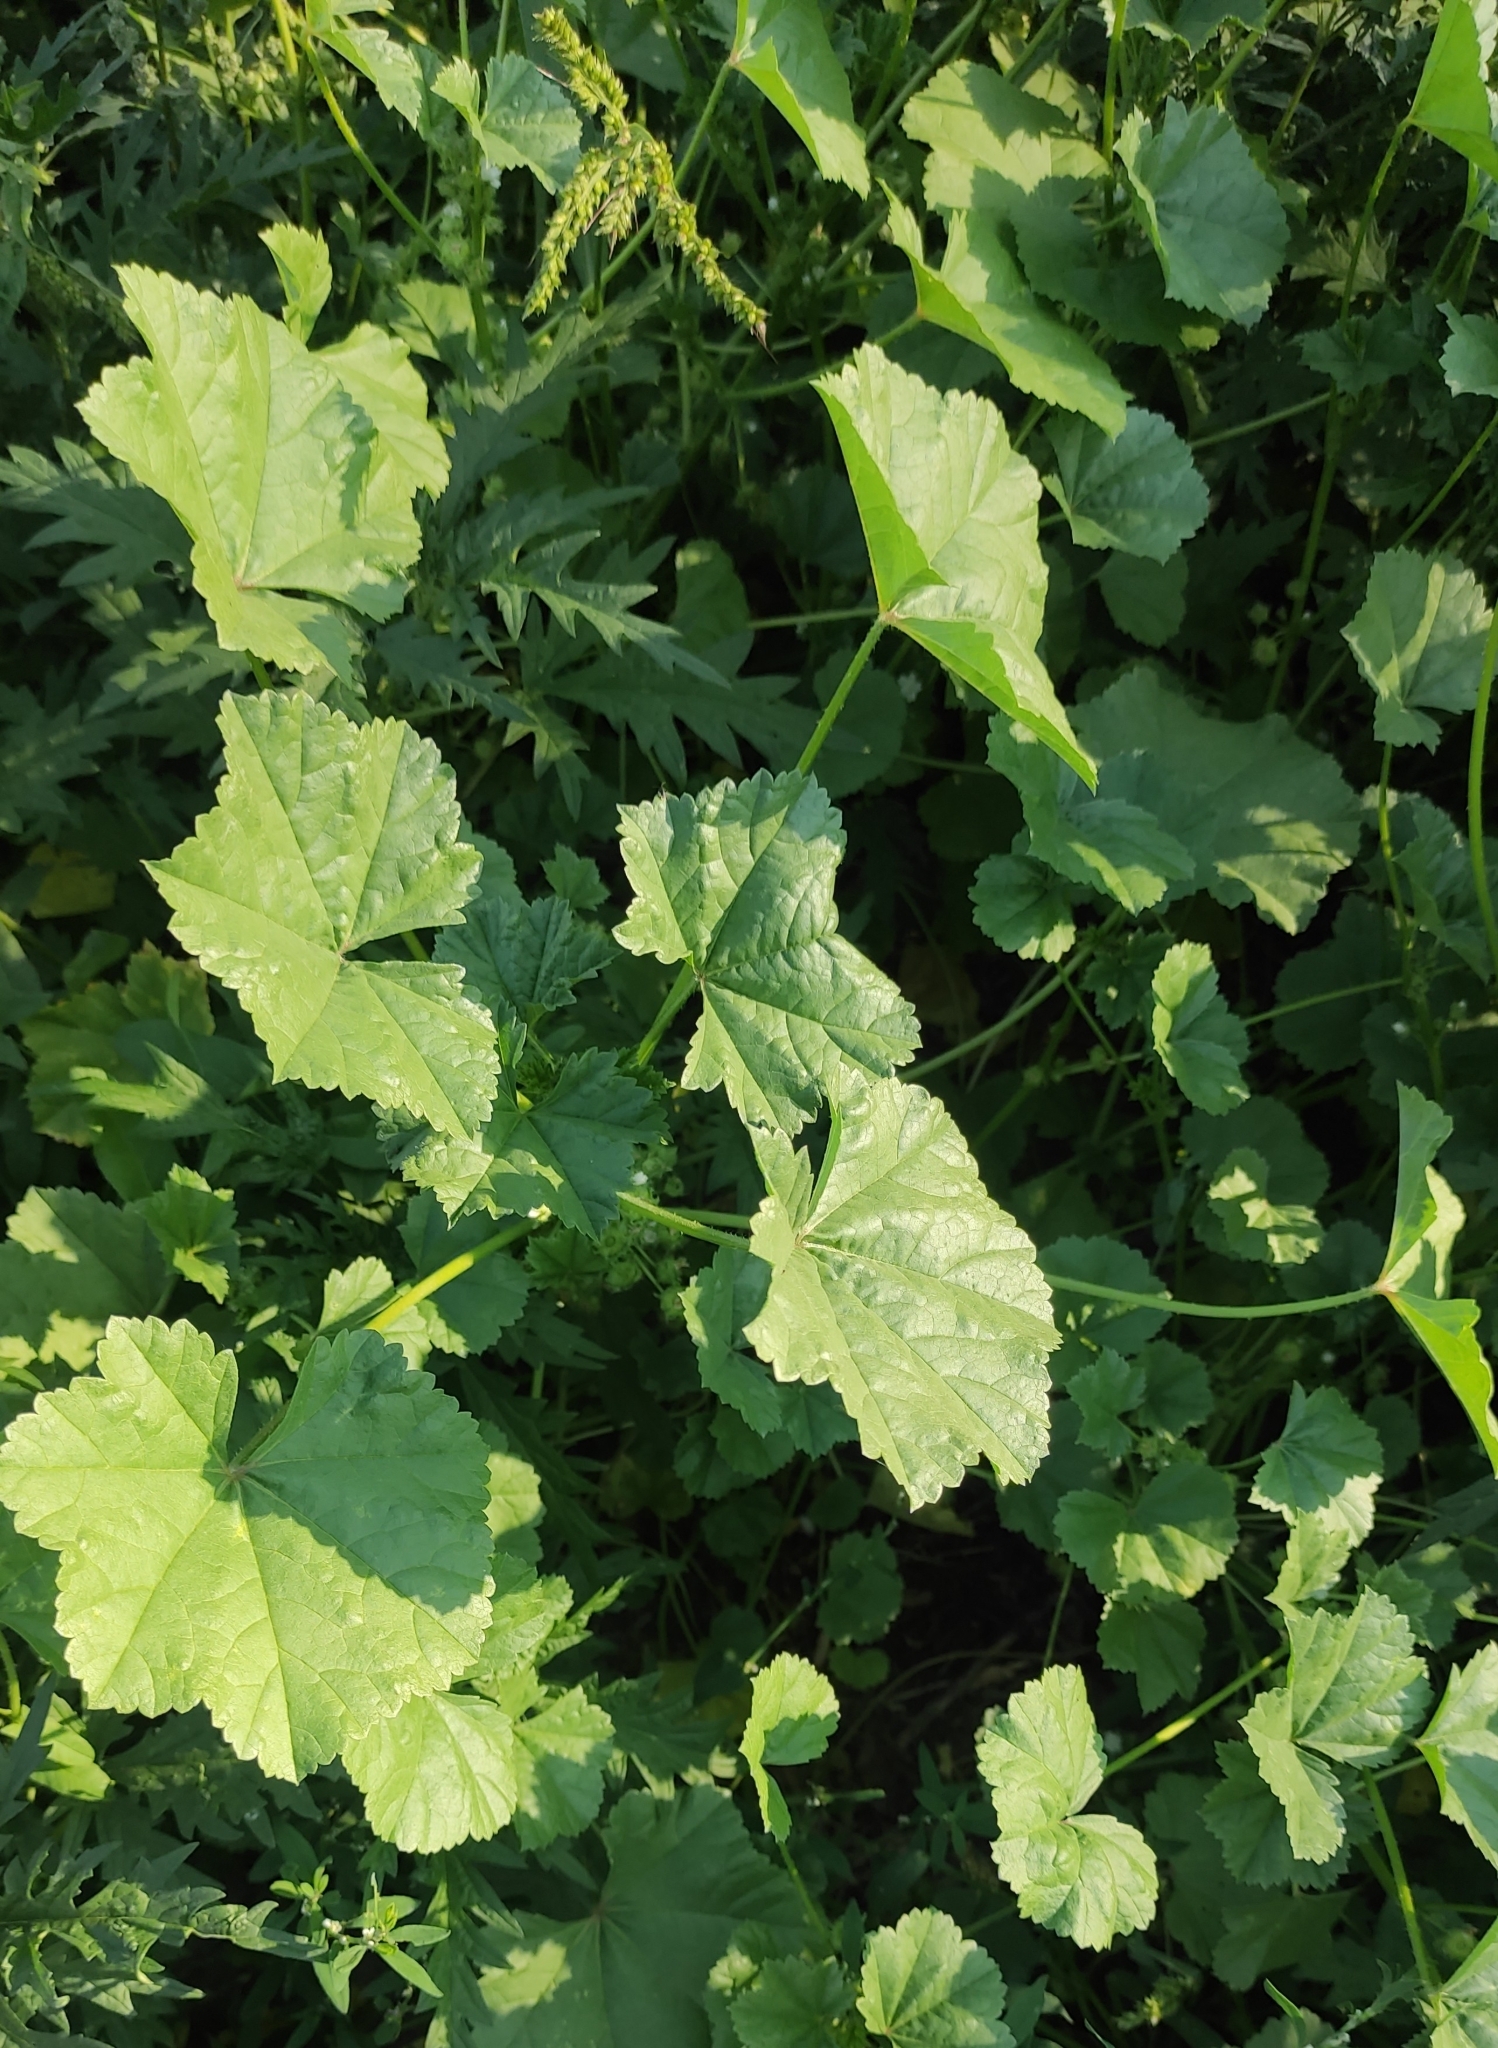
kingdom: Plantae
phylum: Tracheophyta
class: Magnoliopsida
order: Malvales
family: Malvaceae
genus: Malva
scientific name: Malva pusilla
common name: Small mallow
